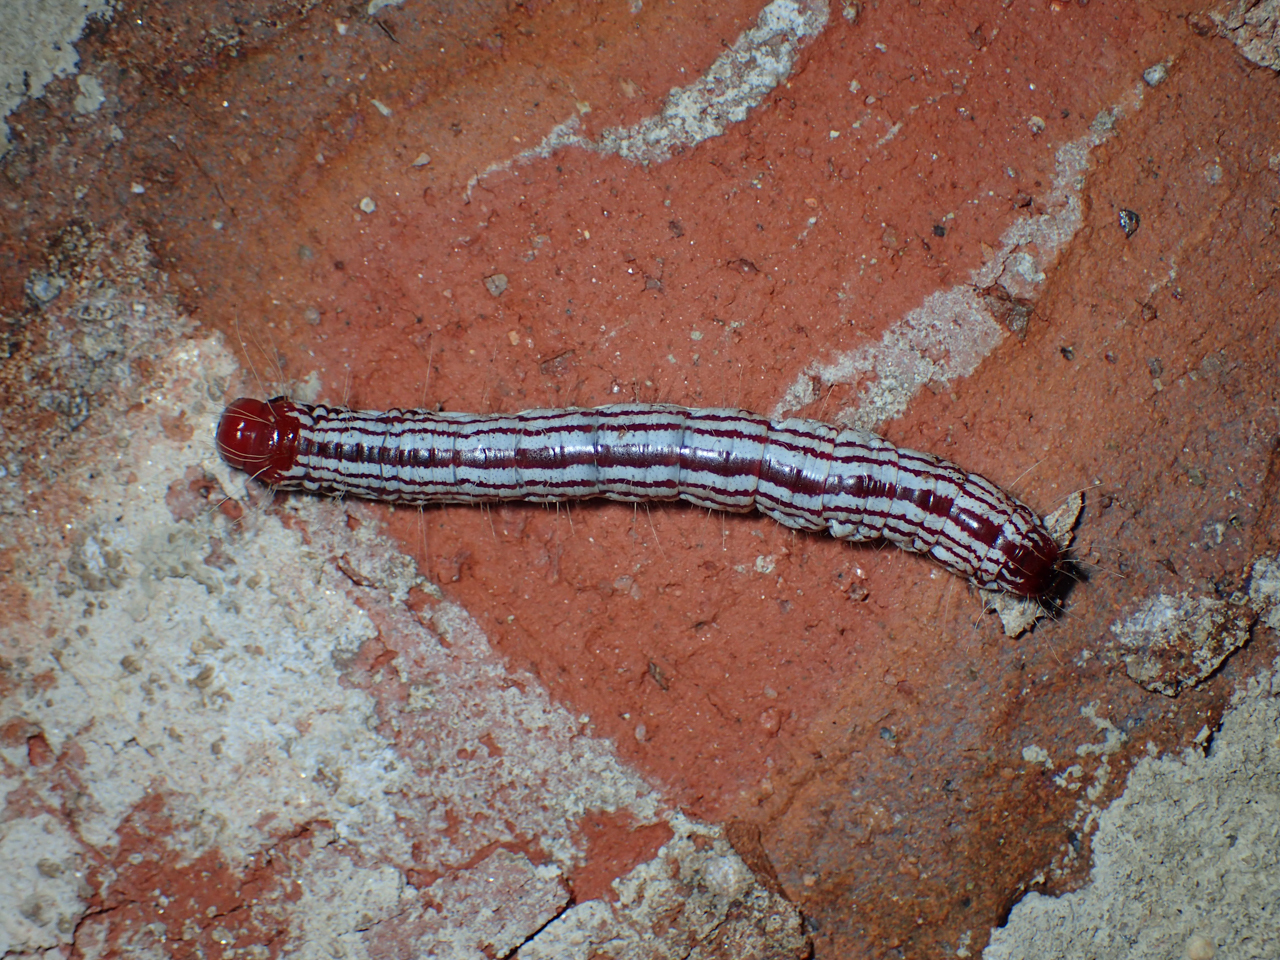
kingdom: Animalia
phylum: Arthropoda
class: Insecta
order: Lepidoptera
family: Notodontidae
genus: Datana
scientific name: Datana major
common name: Azalea caterpillar
